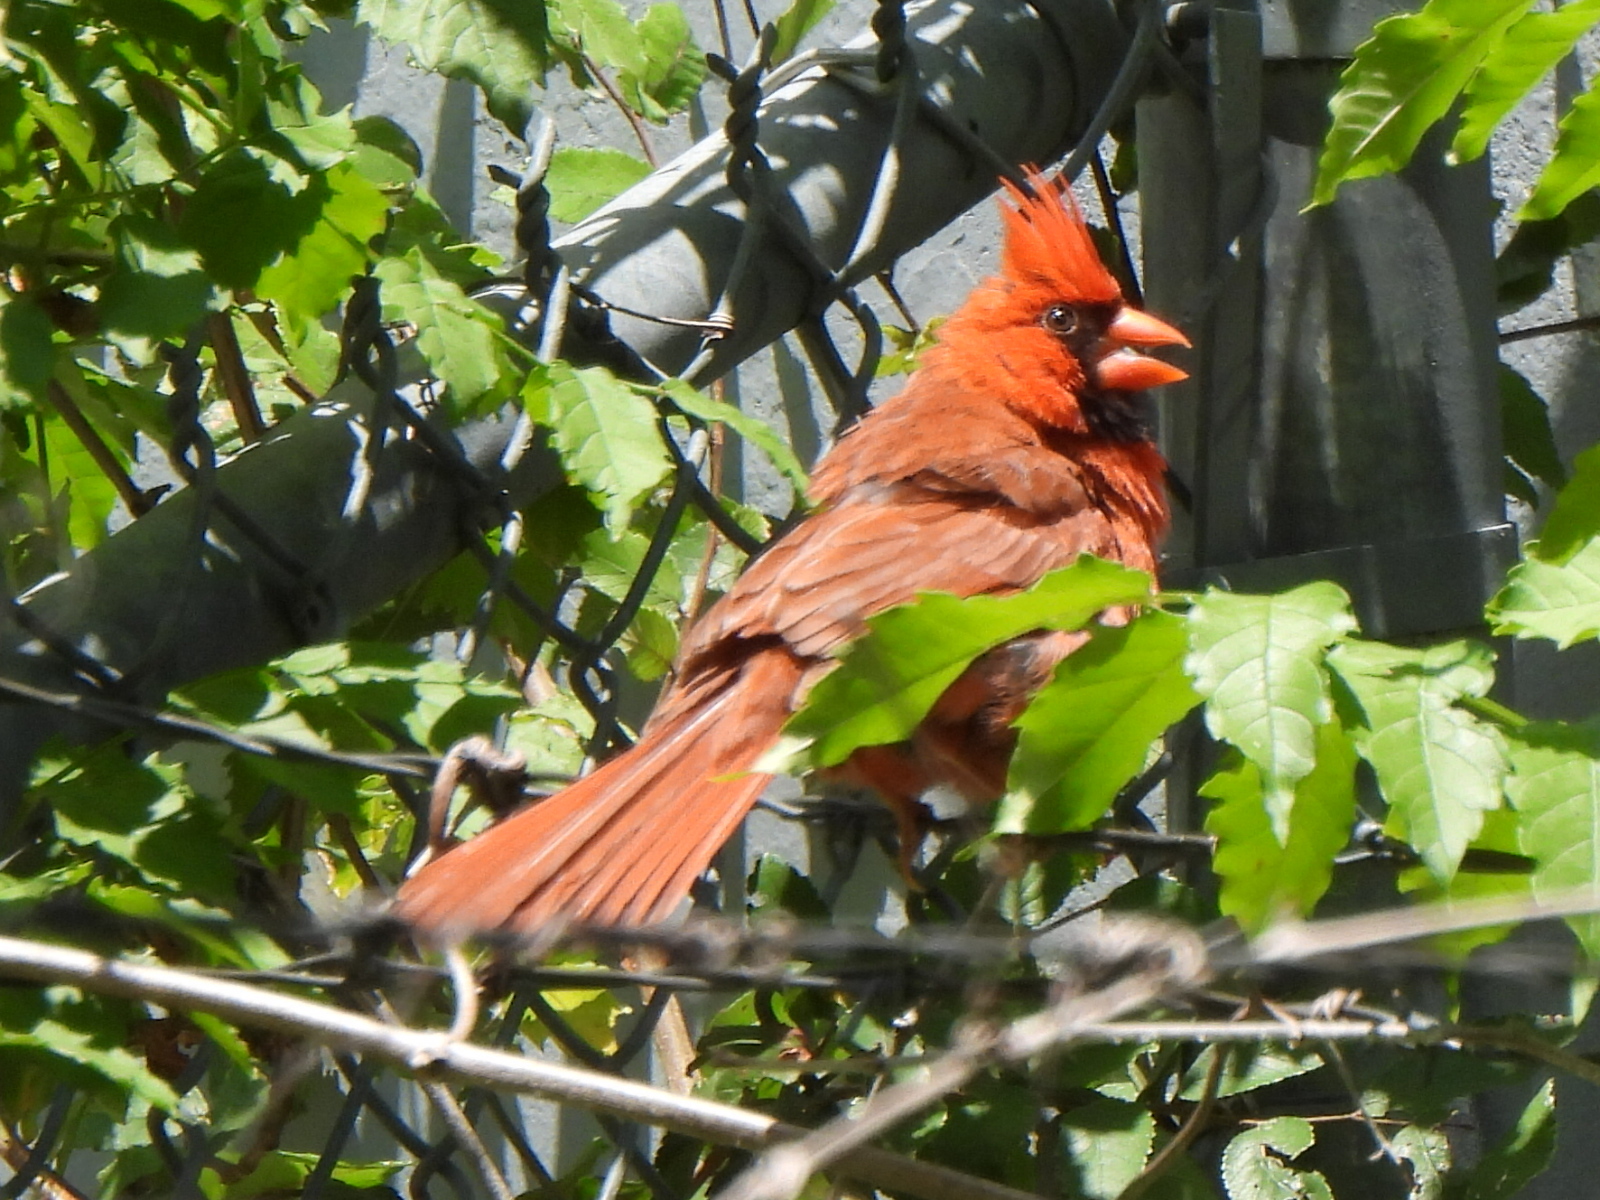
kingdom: Animalia
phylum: Chordata
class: Aves
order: Passeriformes
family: Cardinalidae
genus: Cardinalis
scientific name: Cardinalis cardinalis
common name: Northern cardinal
